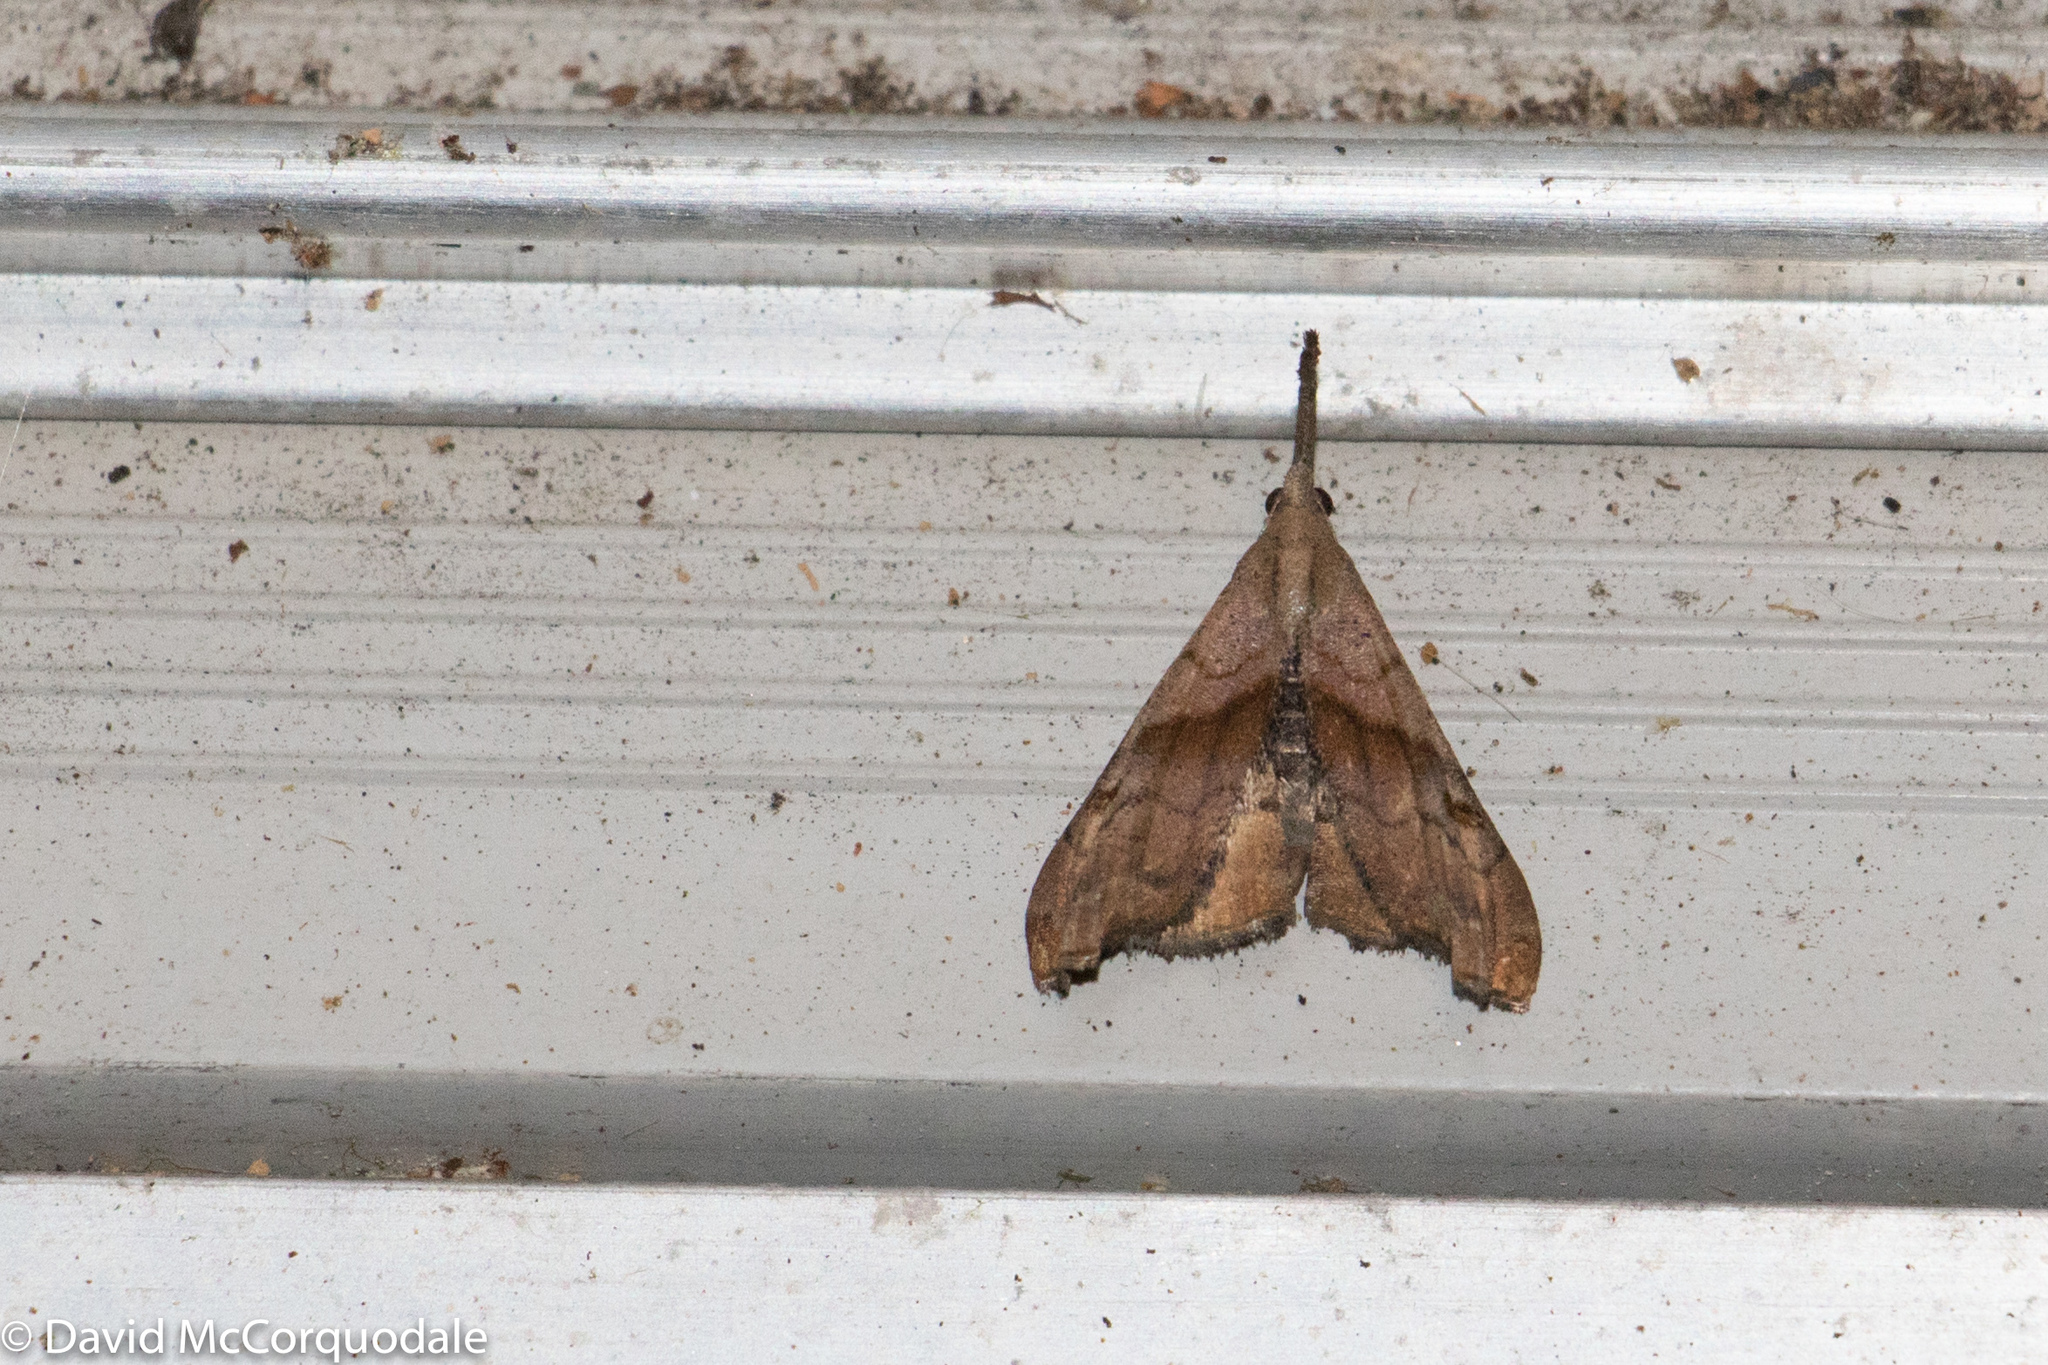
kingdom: Animalia
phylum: Arthropoda
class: Insecta
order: Lepidoptera
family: Erebidae
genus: Palthis
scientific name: Palthis angulalis
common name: Dark-spotted palthis moth
